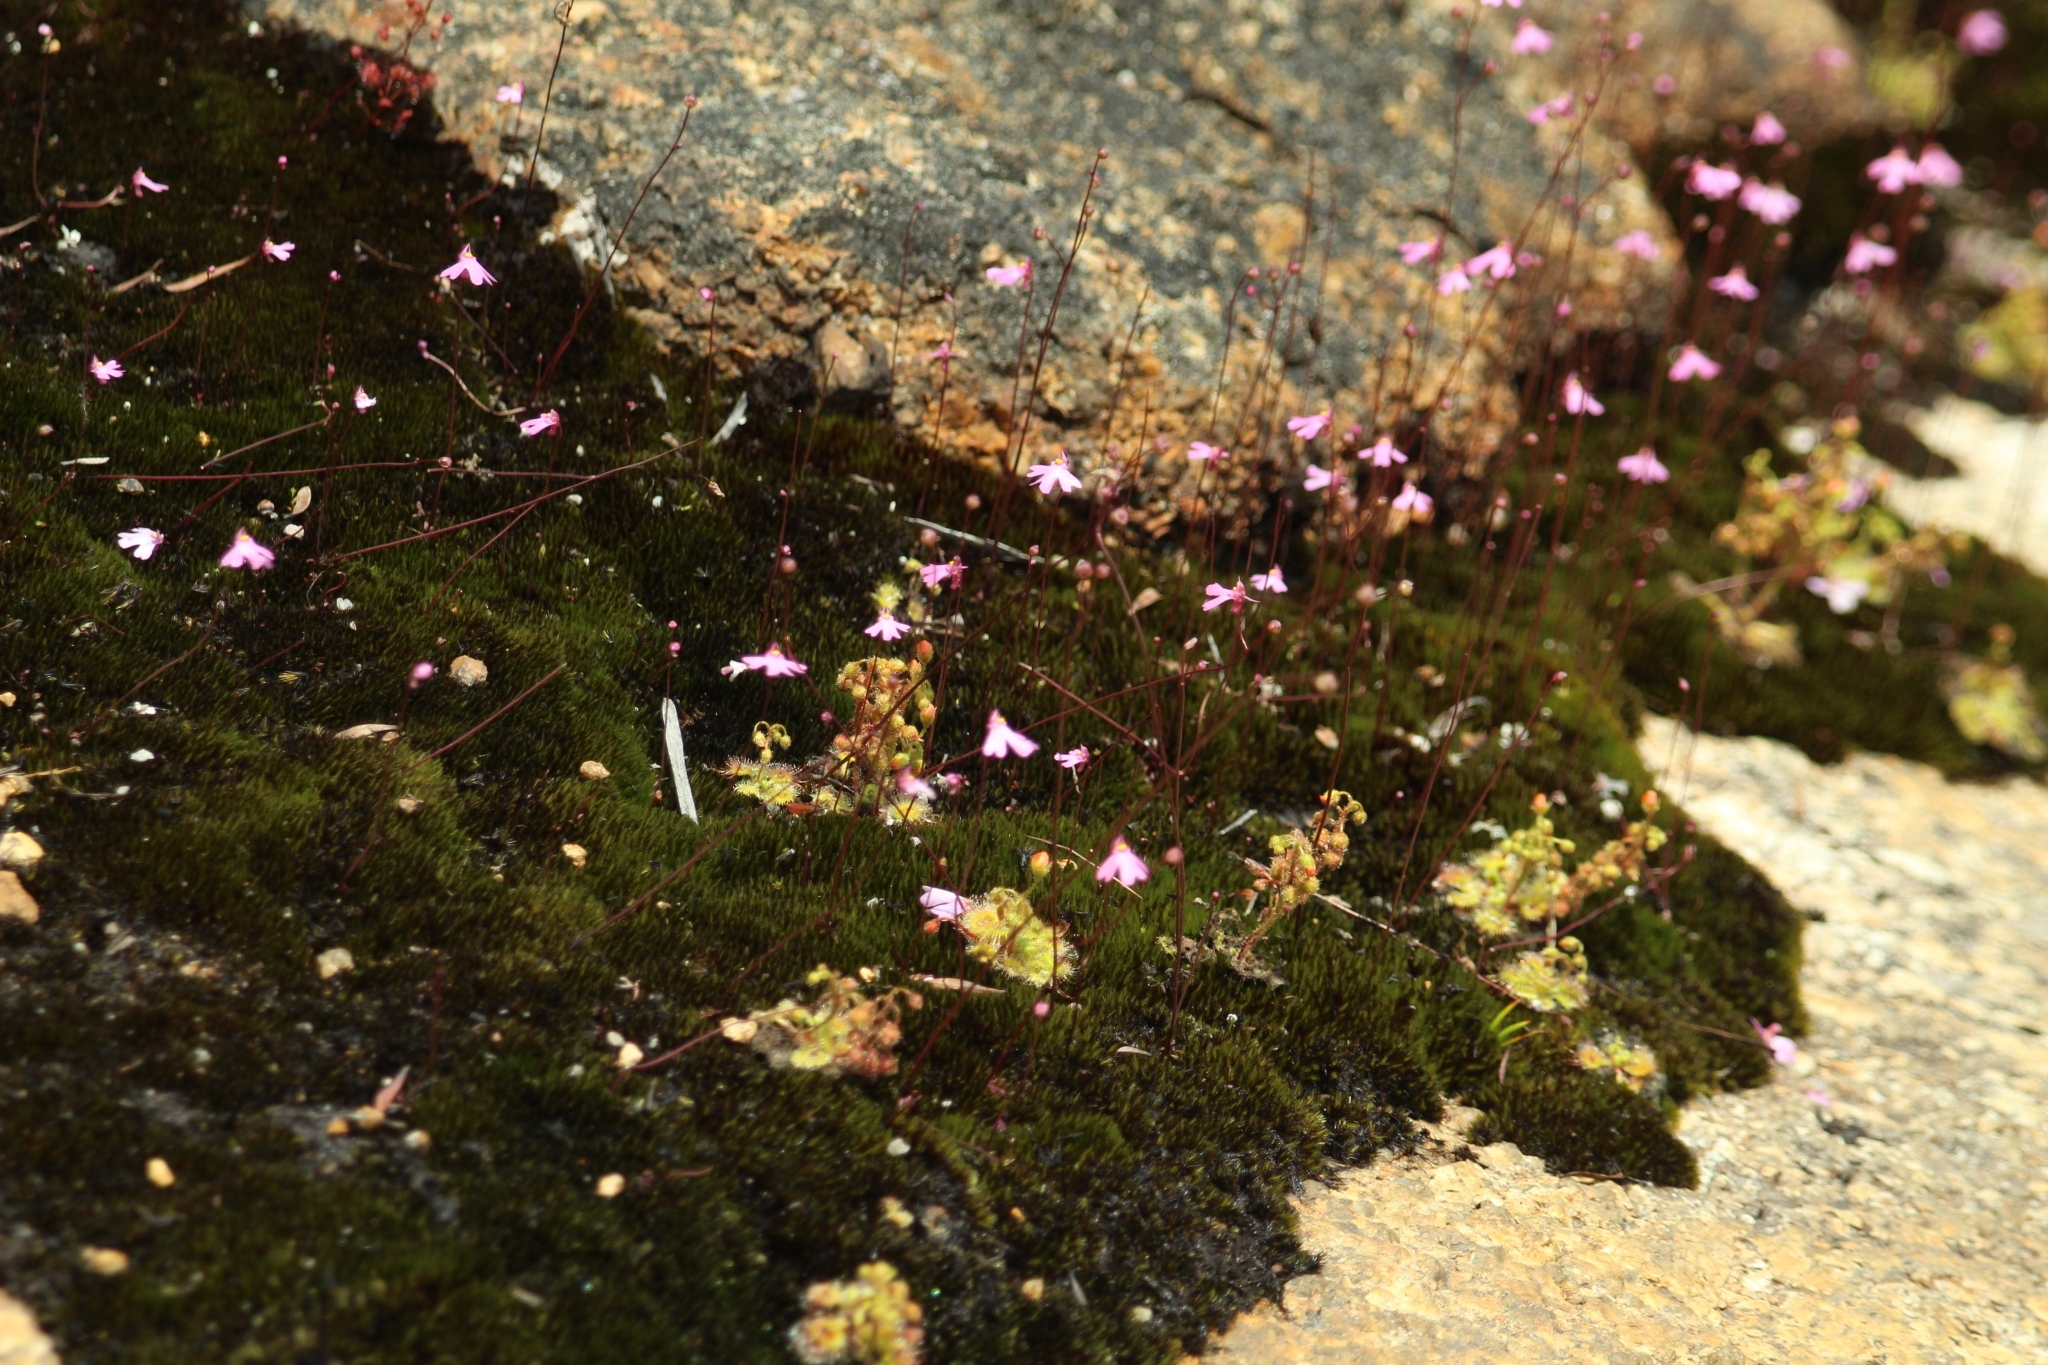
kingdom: Plantae
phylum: Tracheophyta
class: Magnoliopsida
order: Lamiales
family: Lentibulariaceae
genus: Utricularia
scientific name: Utricularia multifida
